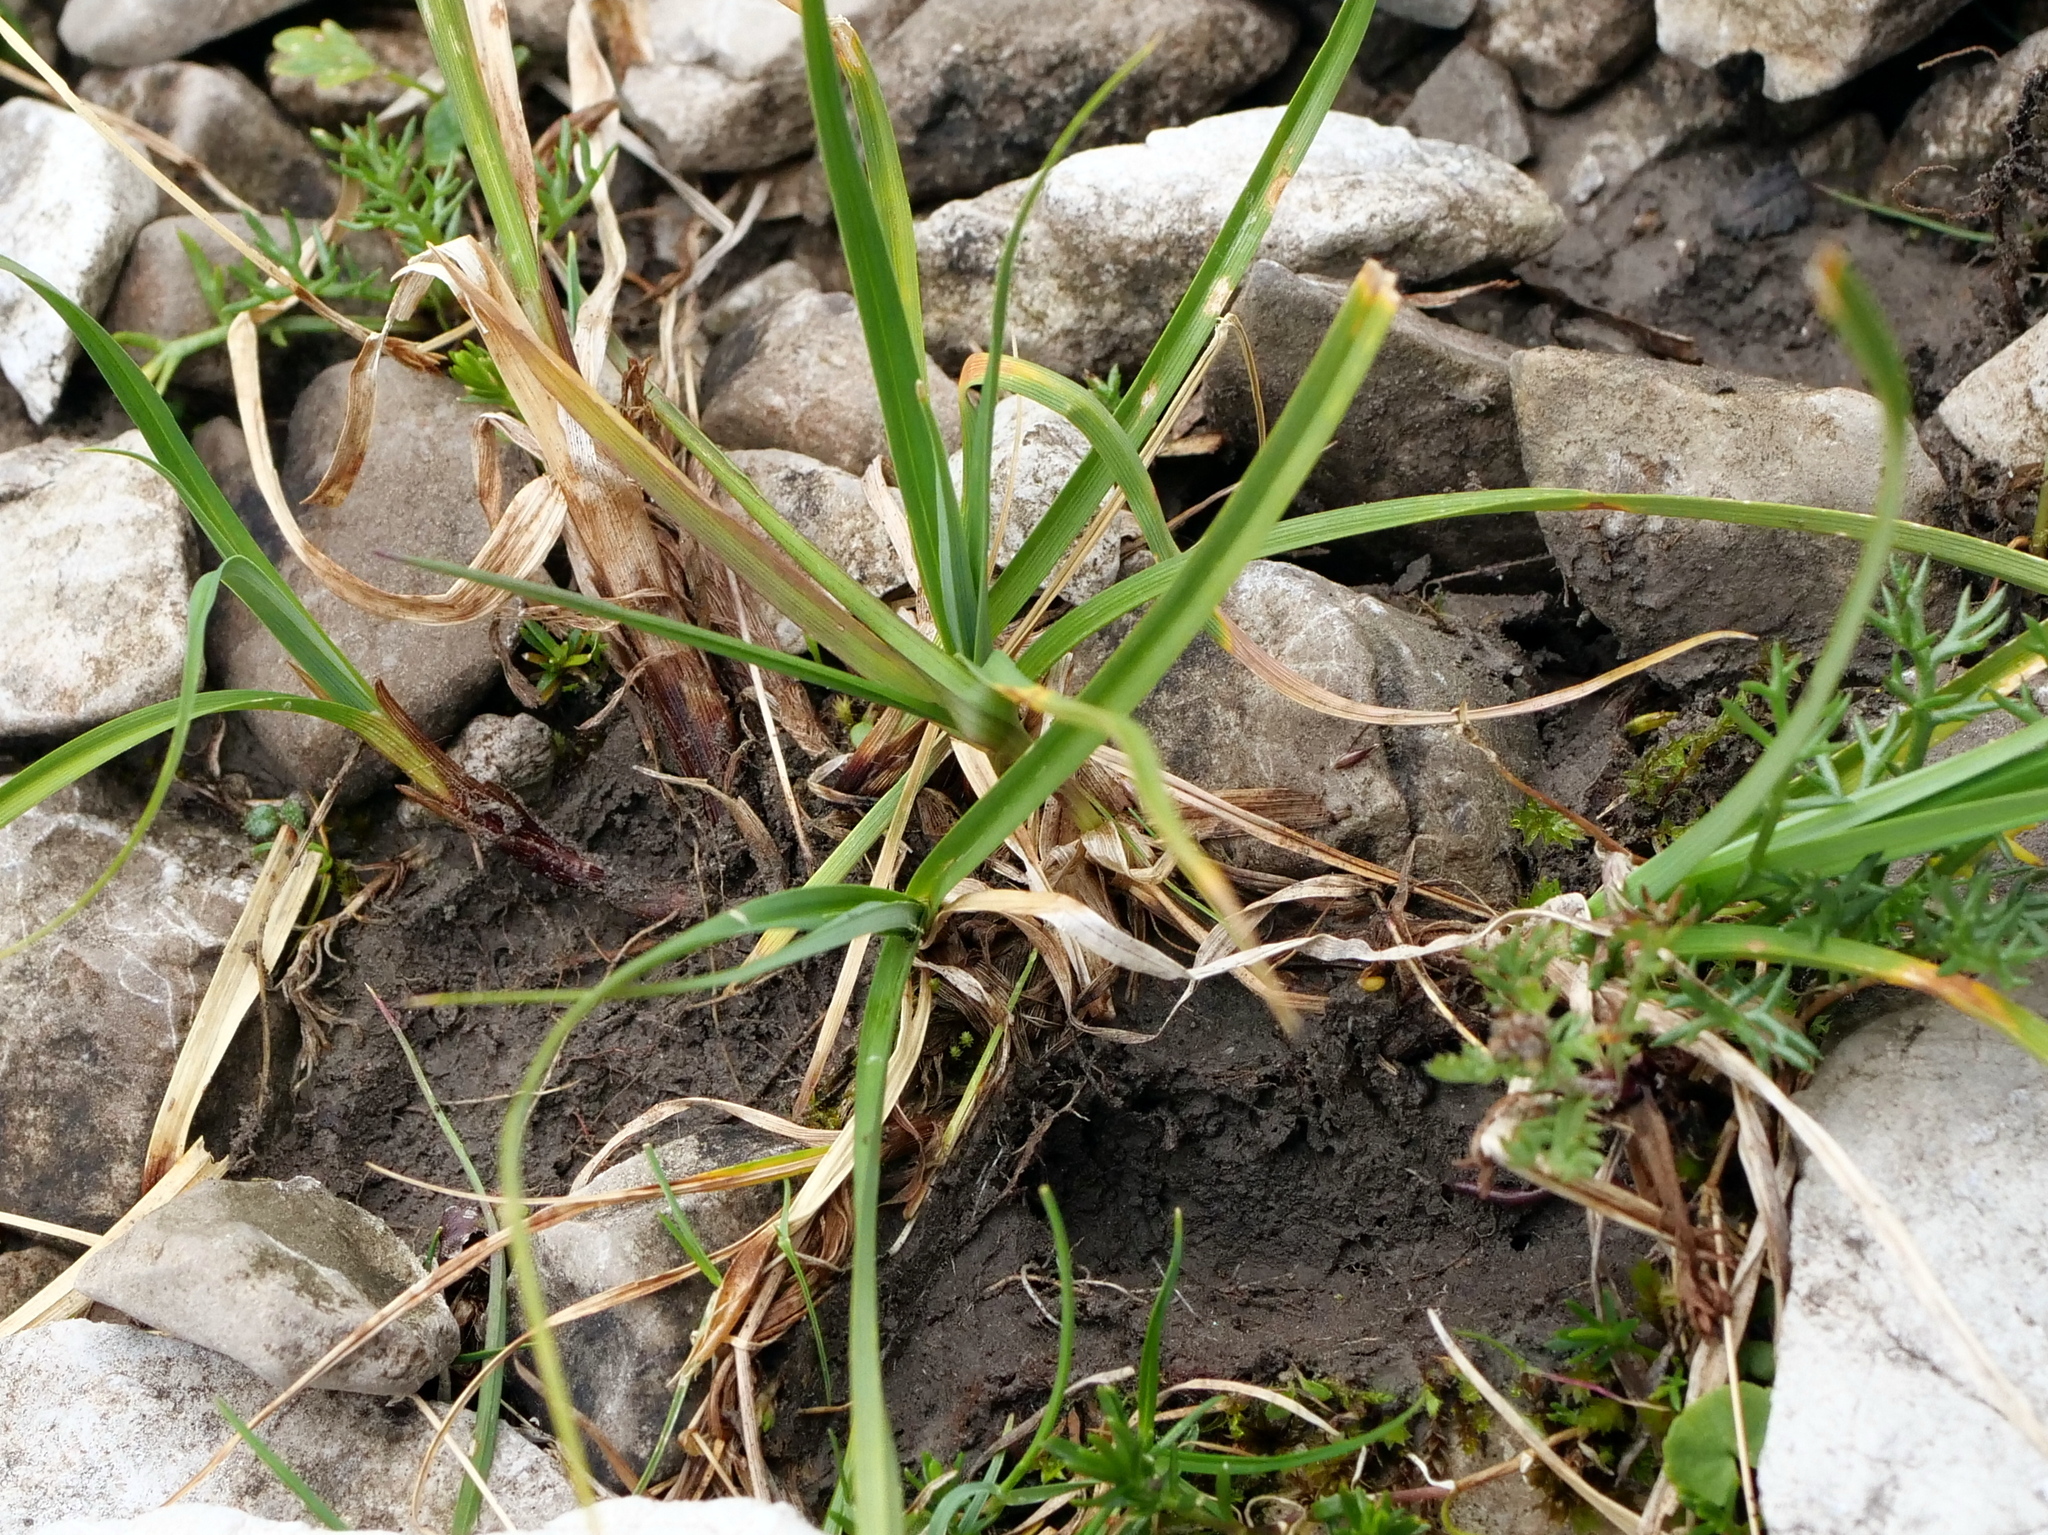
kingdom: Plantae
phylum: Tracheophyta
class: Liliopsida
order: Poales
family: Cyperaceae
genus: Carex
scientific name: Carex parviflora
